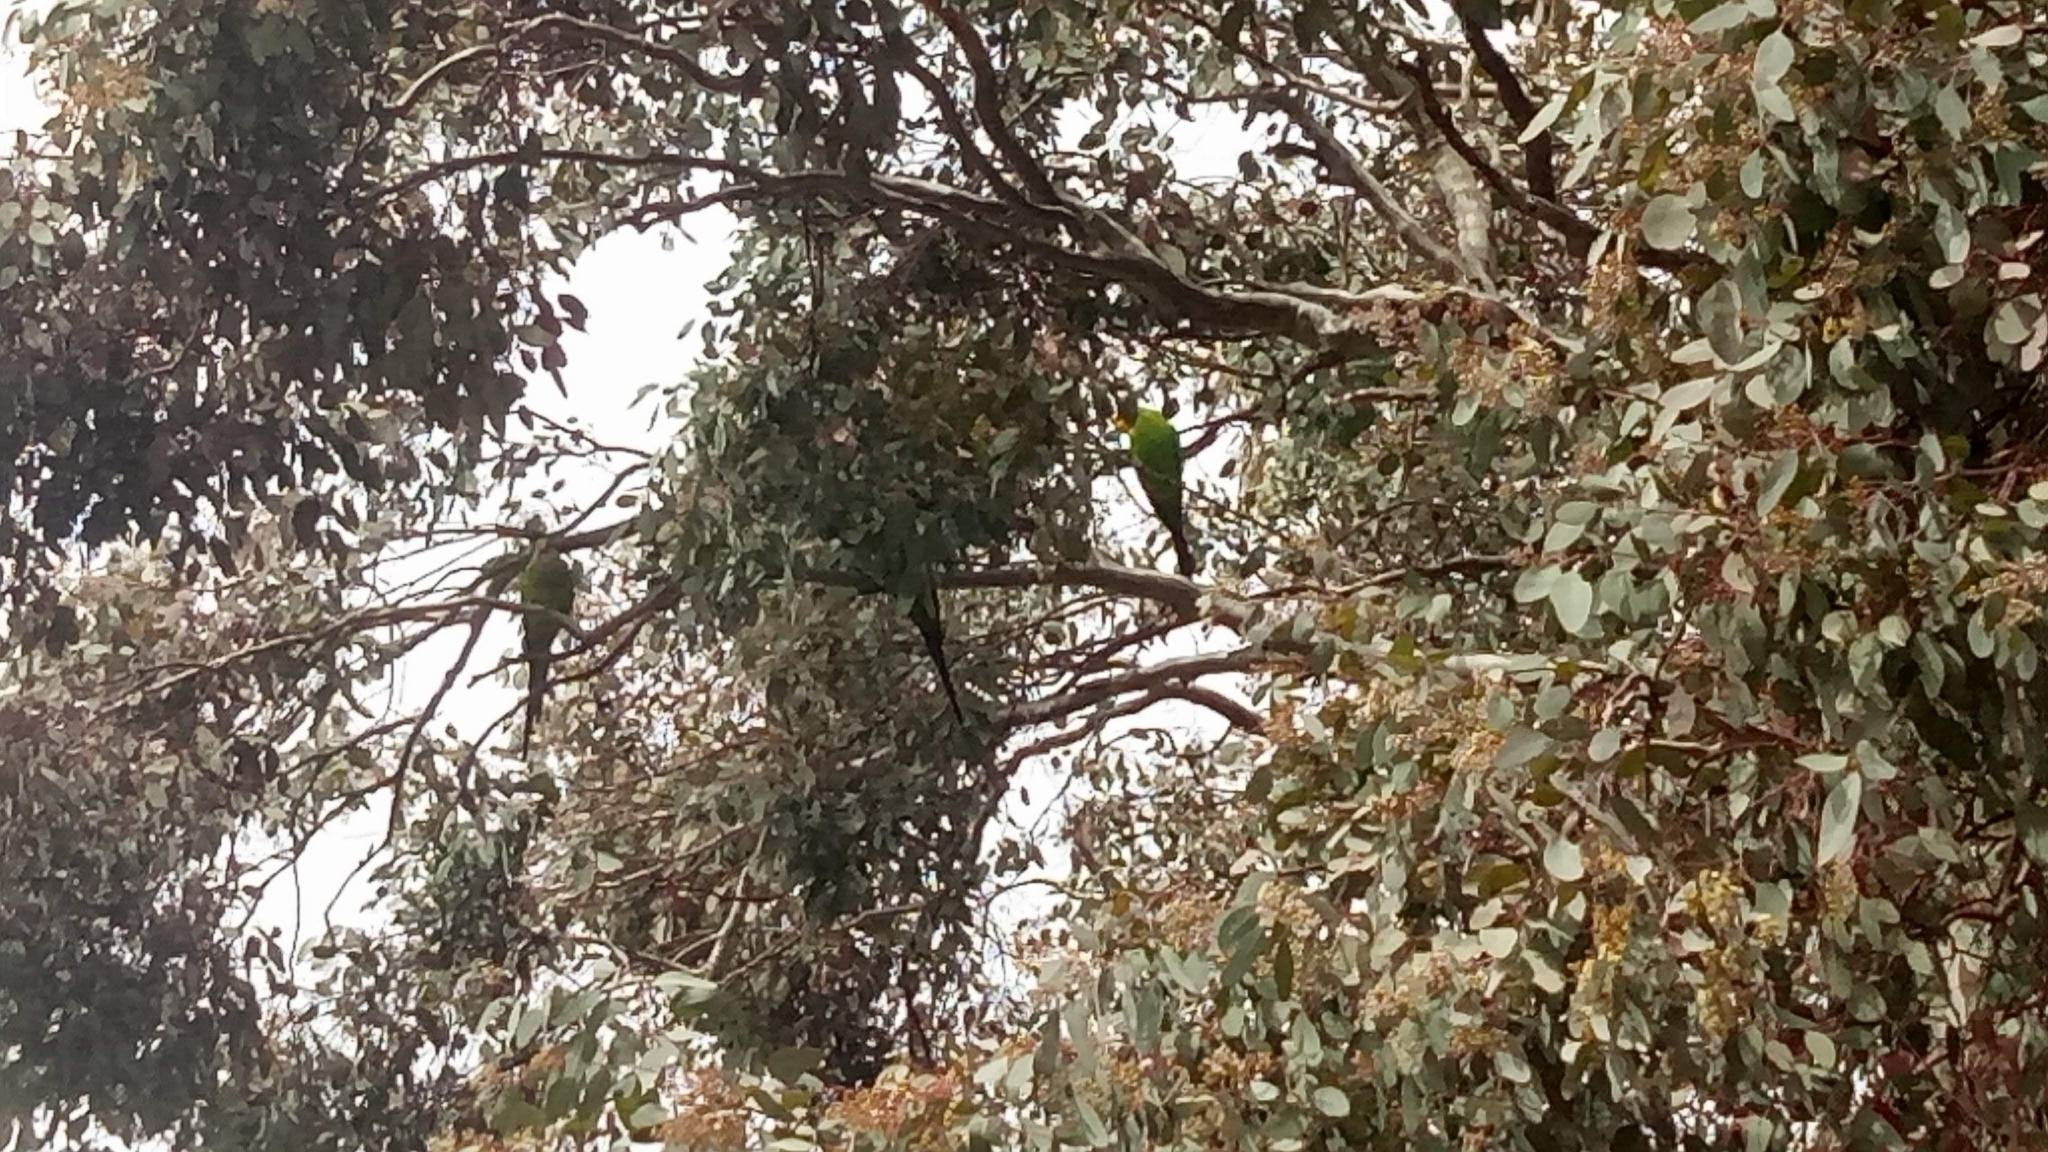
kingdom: Animalia
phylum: Chordata
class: Aves
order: Psittaciformes
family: Psittacidae
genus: Polytelis
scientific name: Polytelis swainsonii
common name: Superb parrot
